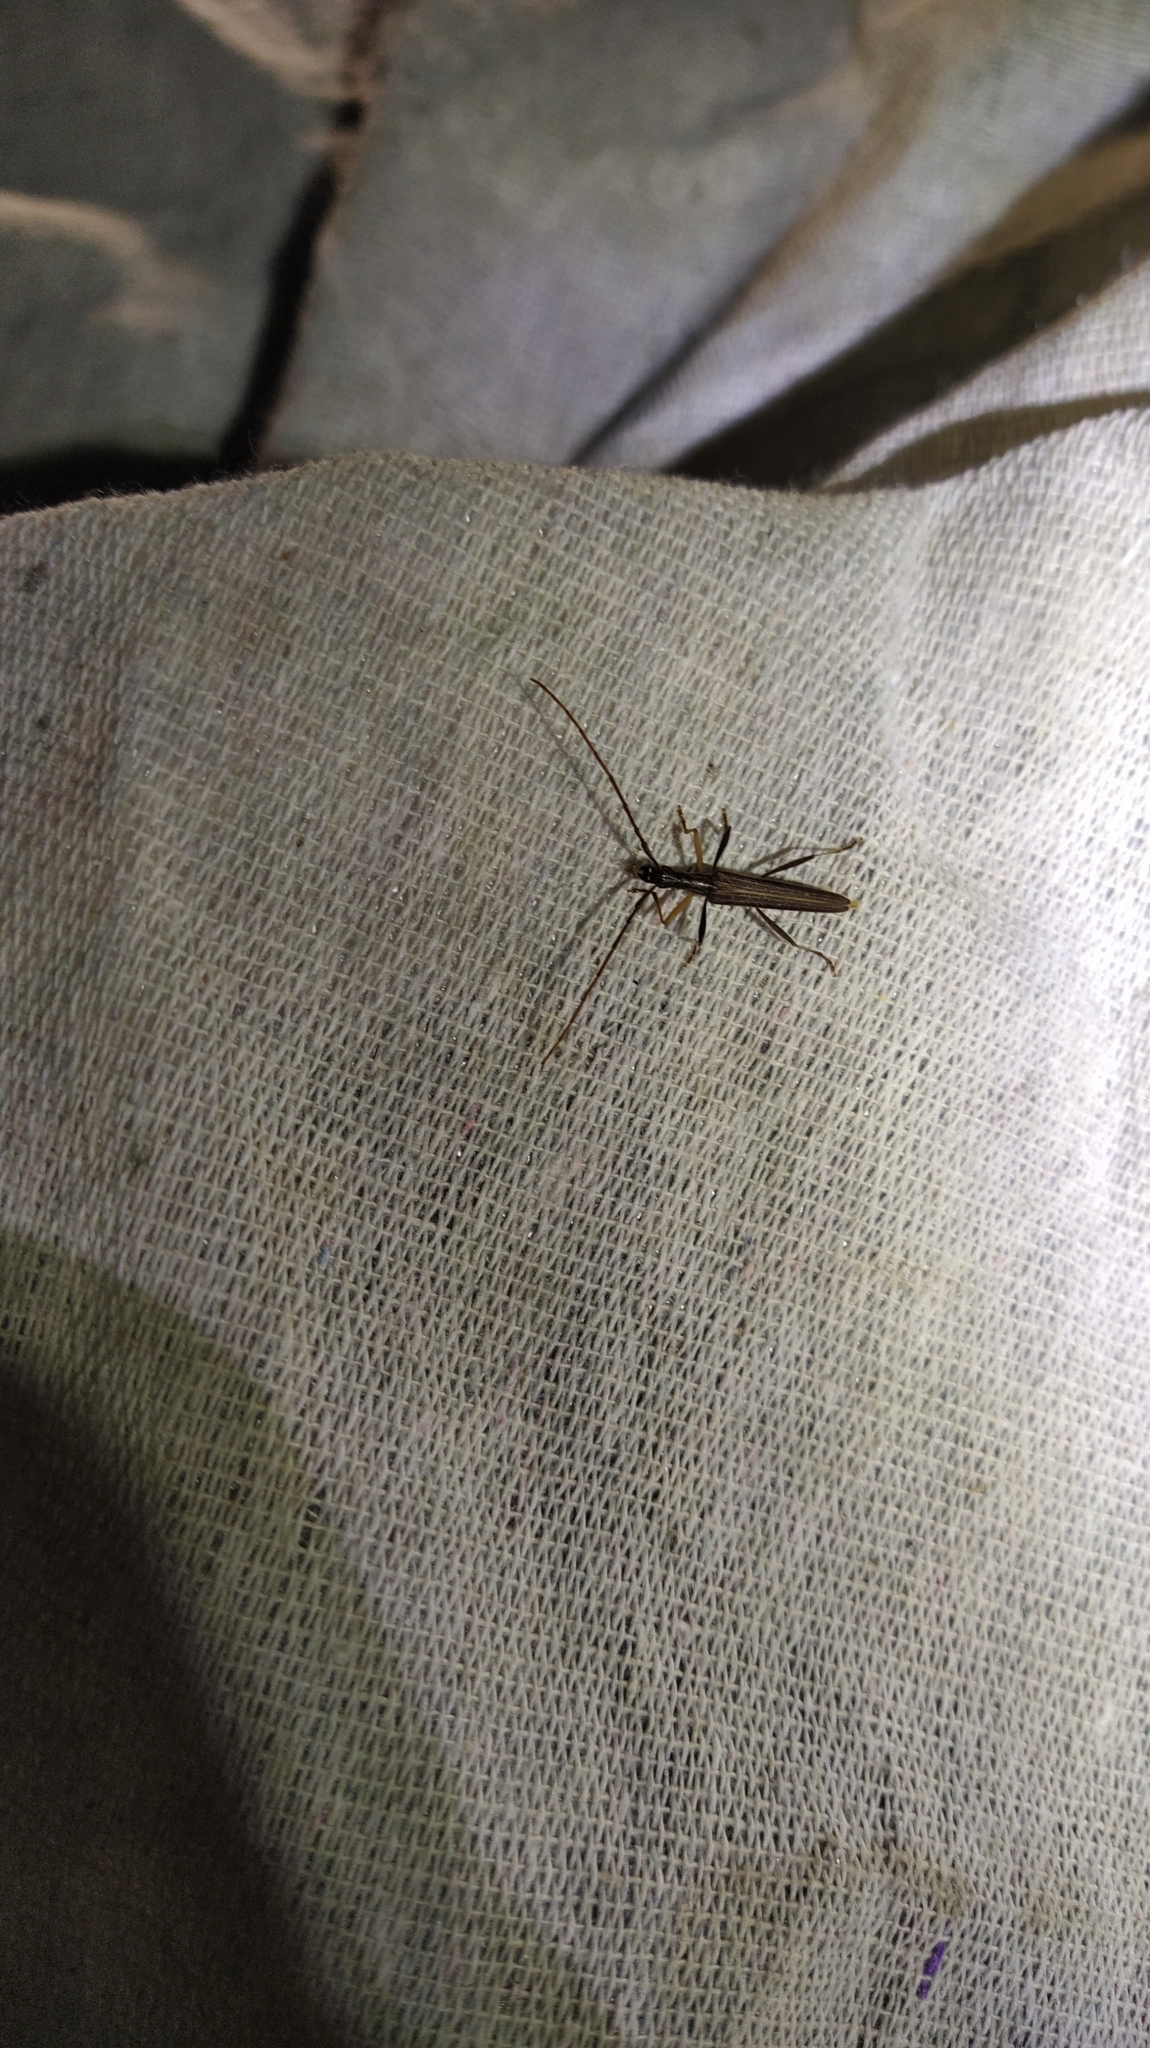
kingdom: Animalia
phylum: Arthropoda
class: Insecta
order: Coleoptera
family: Cerambycidae
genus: Stenopotes
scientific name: Stenopotes pallidus
